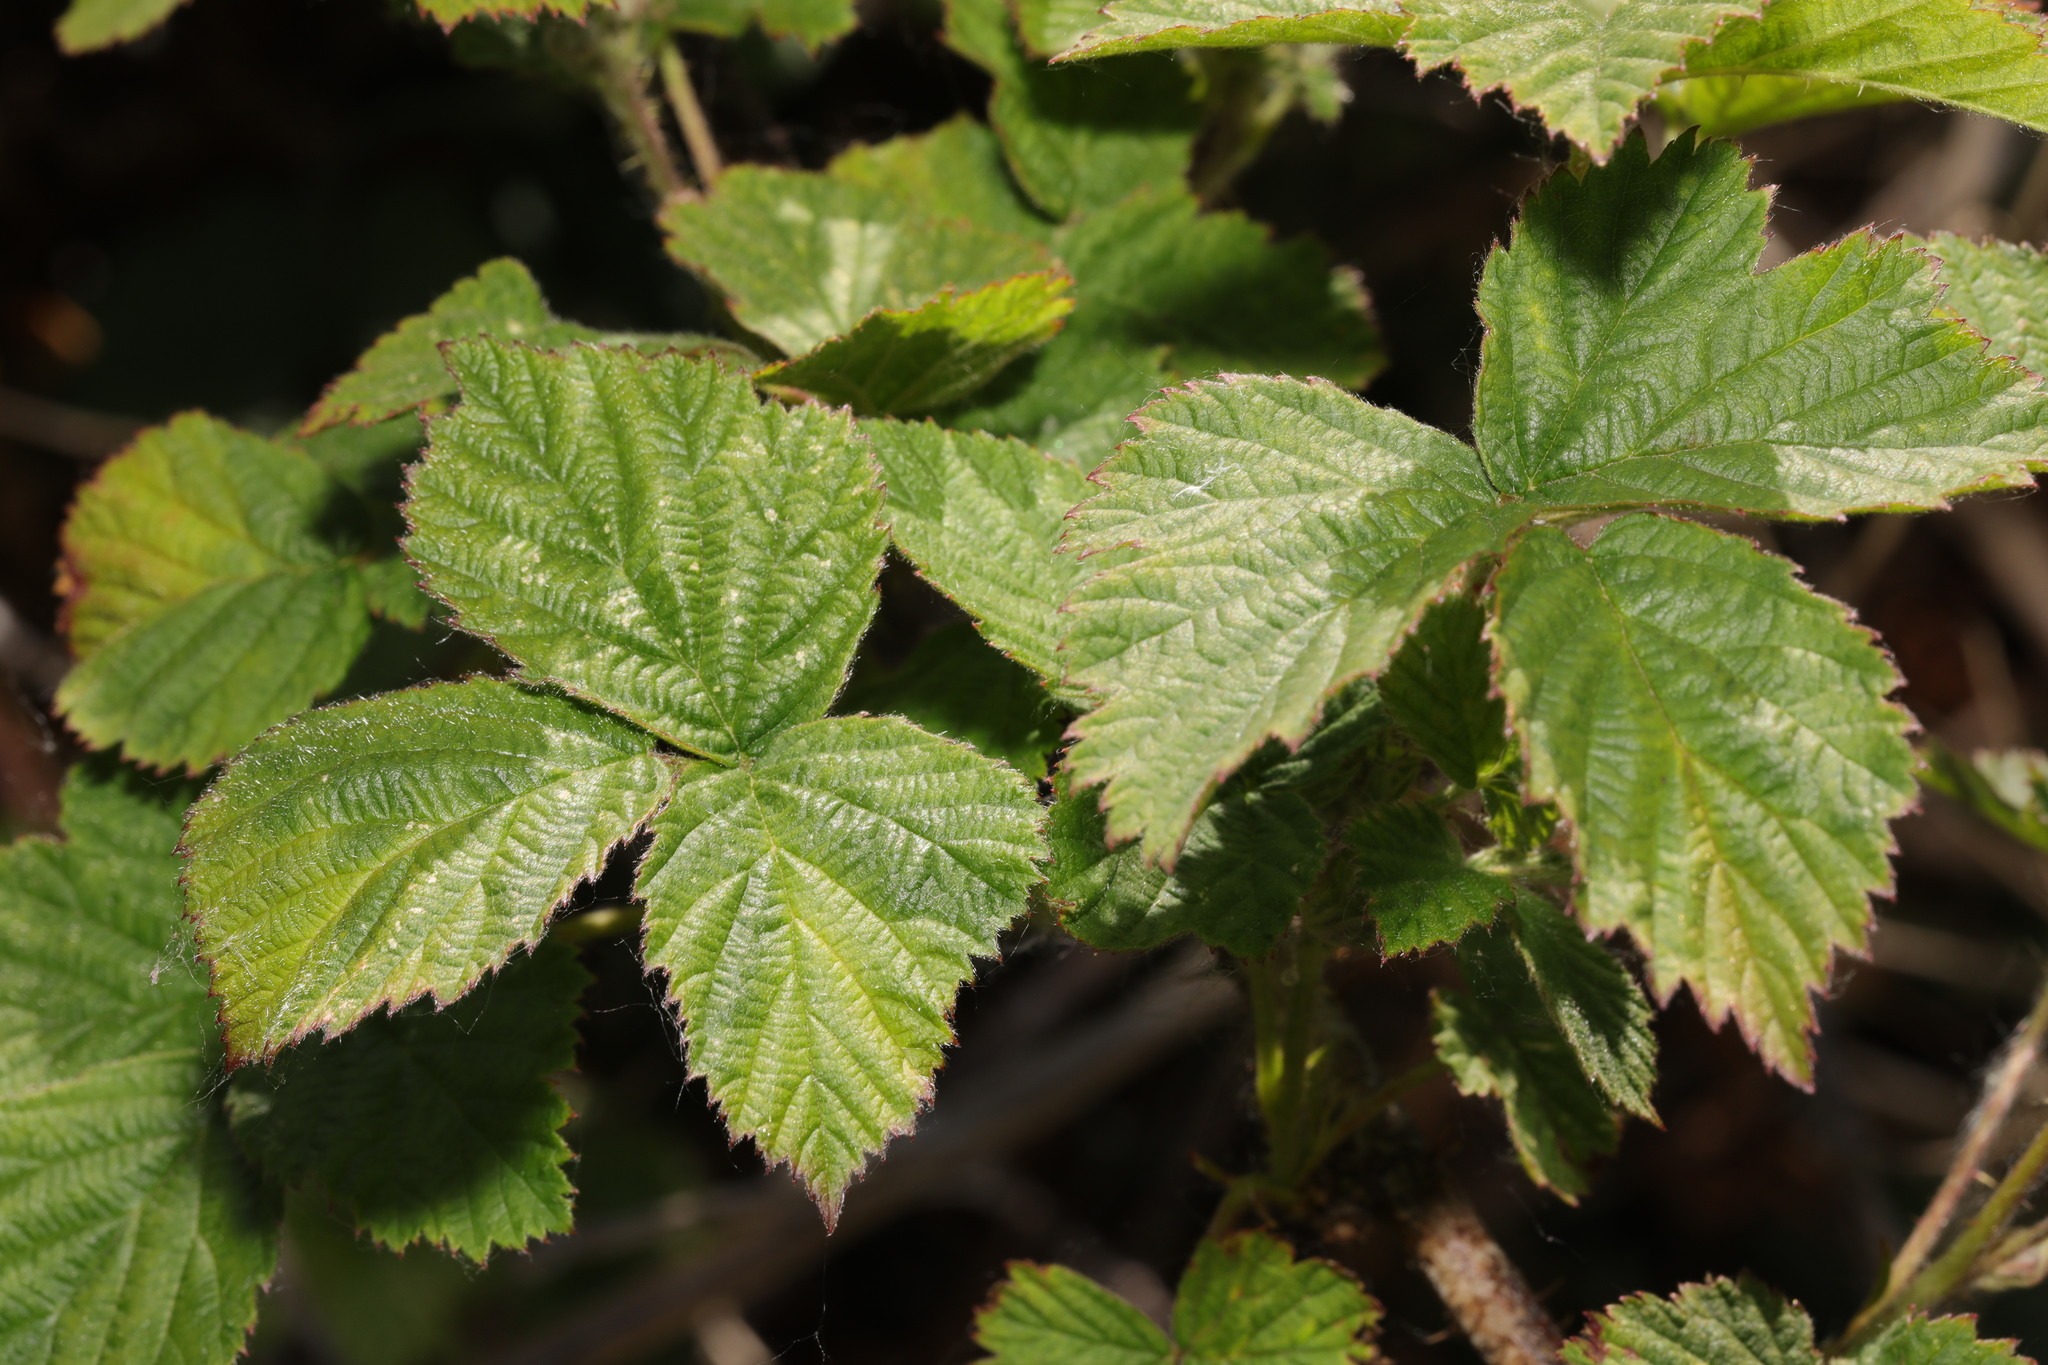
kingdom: Plantae
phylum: Tracheophyta
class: Magnoliopsida
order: Rosales
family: Rosaceae
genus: Rubus
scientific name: Rubus horrefactus
